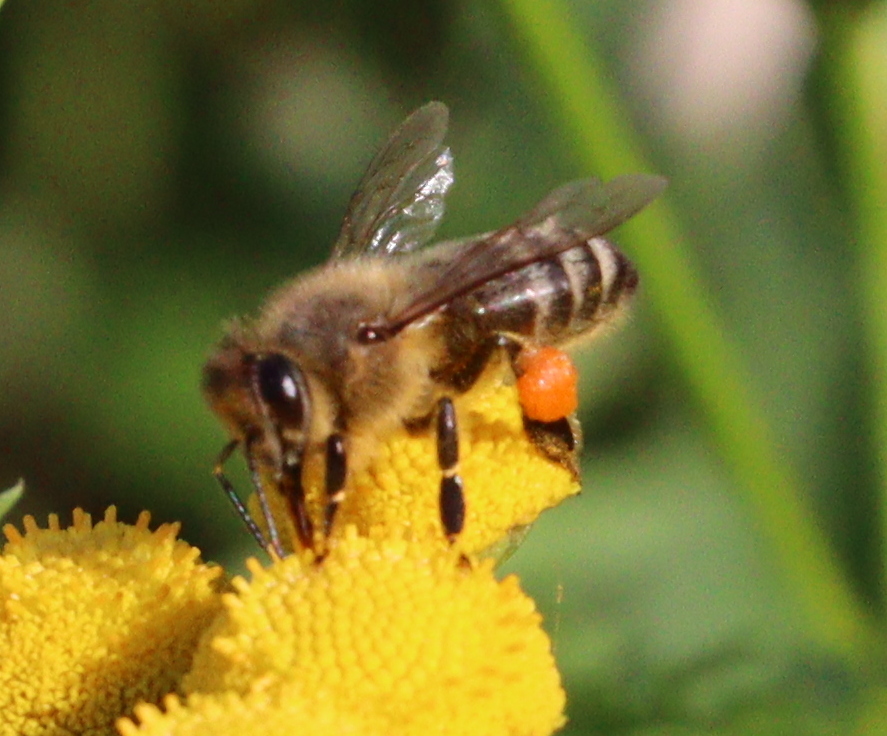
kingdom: Animalia
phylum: Arthropoda
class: Insecta
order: Hymenoptera
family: Apidae
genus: Apis
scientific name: Apis mellifera
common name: Honey bee
